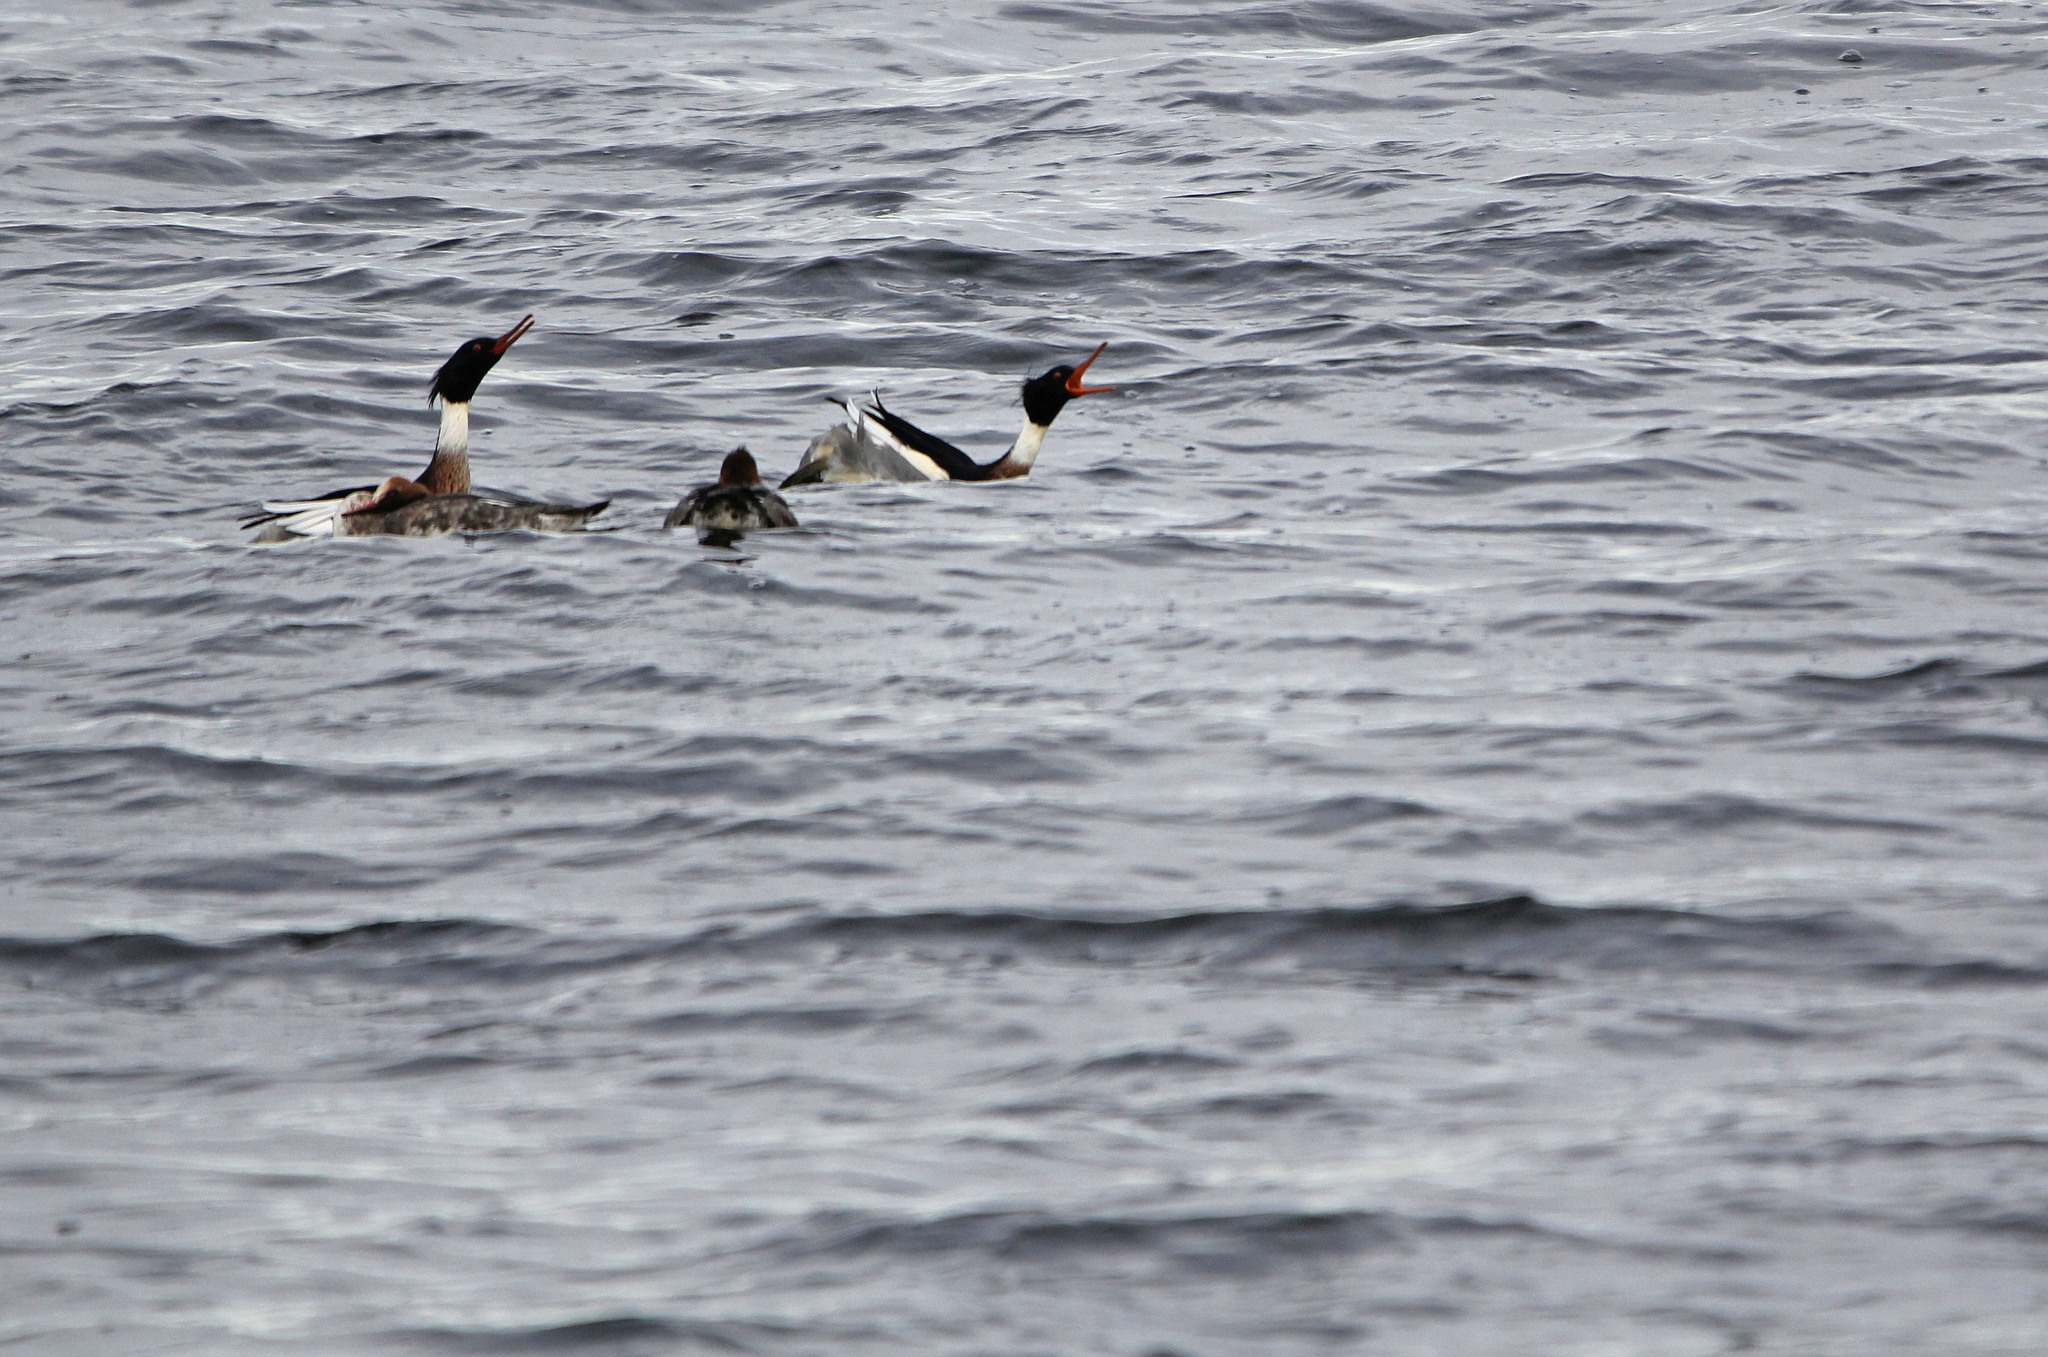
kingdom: Animalia
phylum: Chordata
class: Aves
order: Anseriformes
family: Anatidae
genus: Mergus
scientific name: Mergus serrator
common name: Red-breasted merganser
